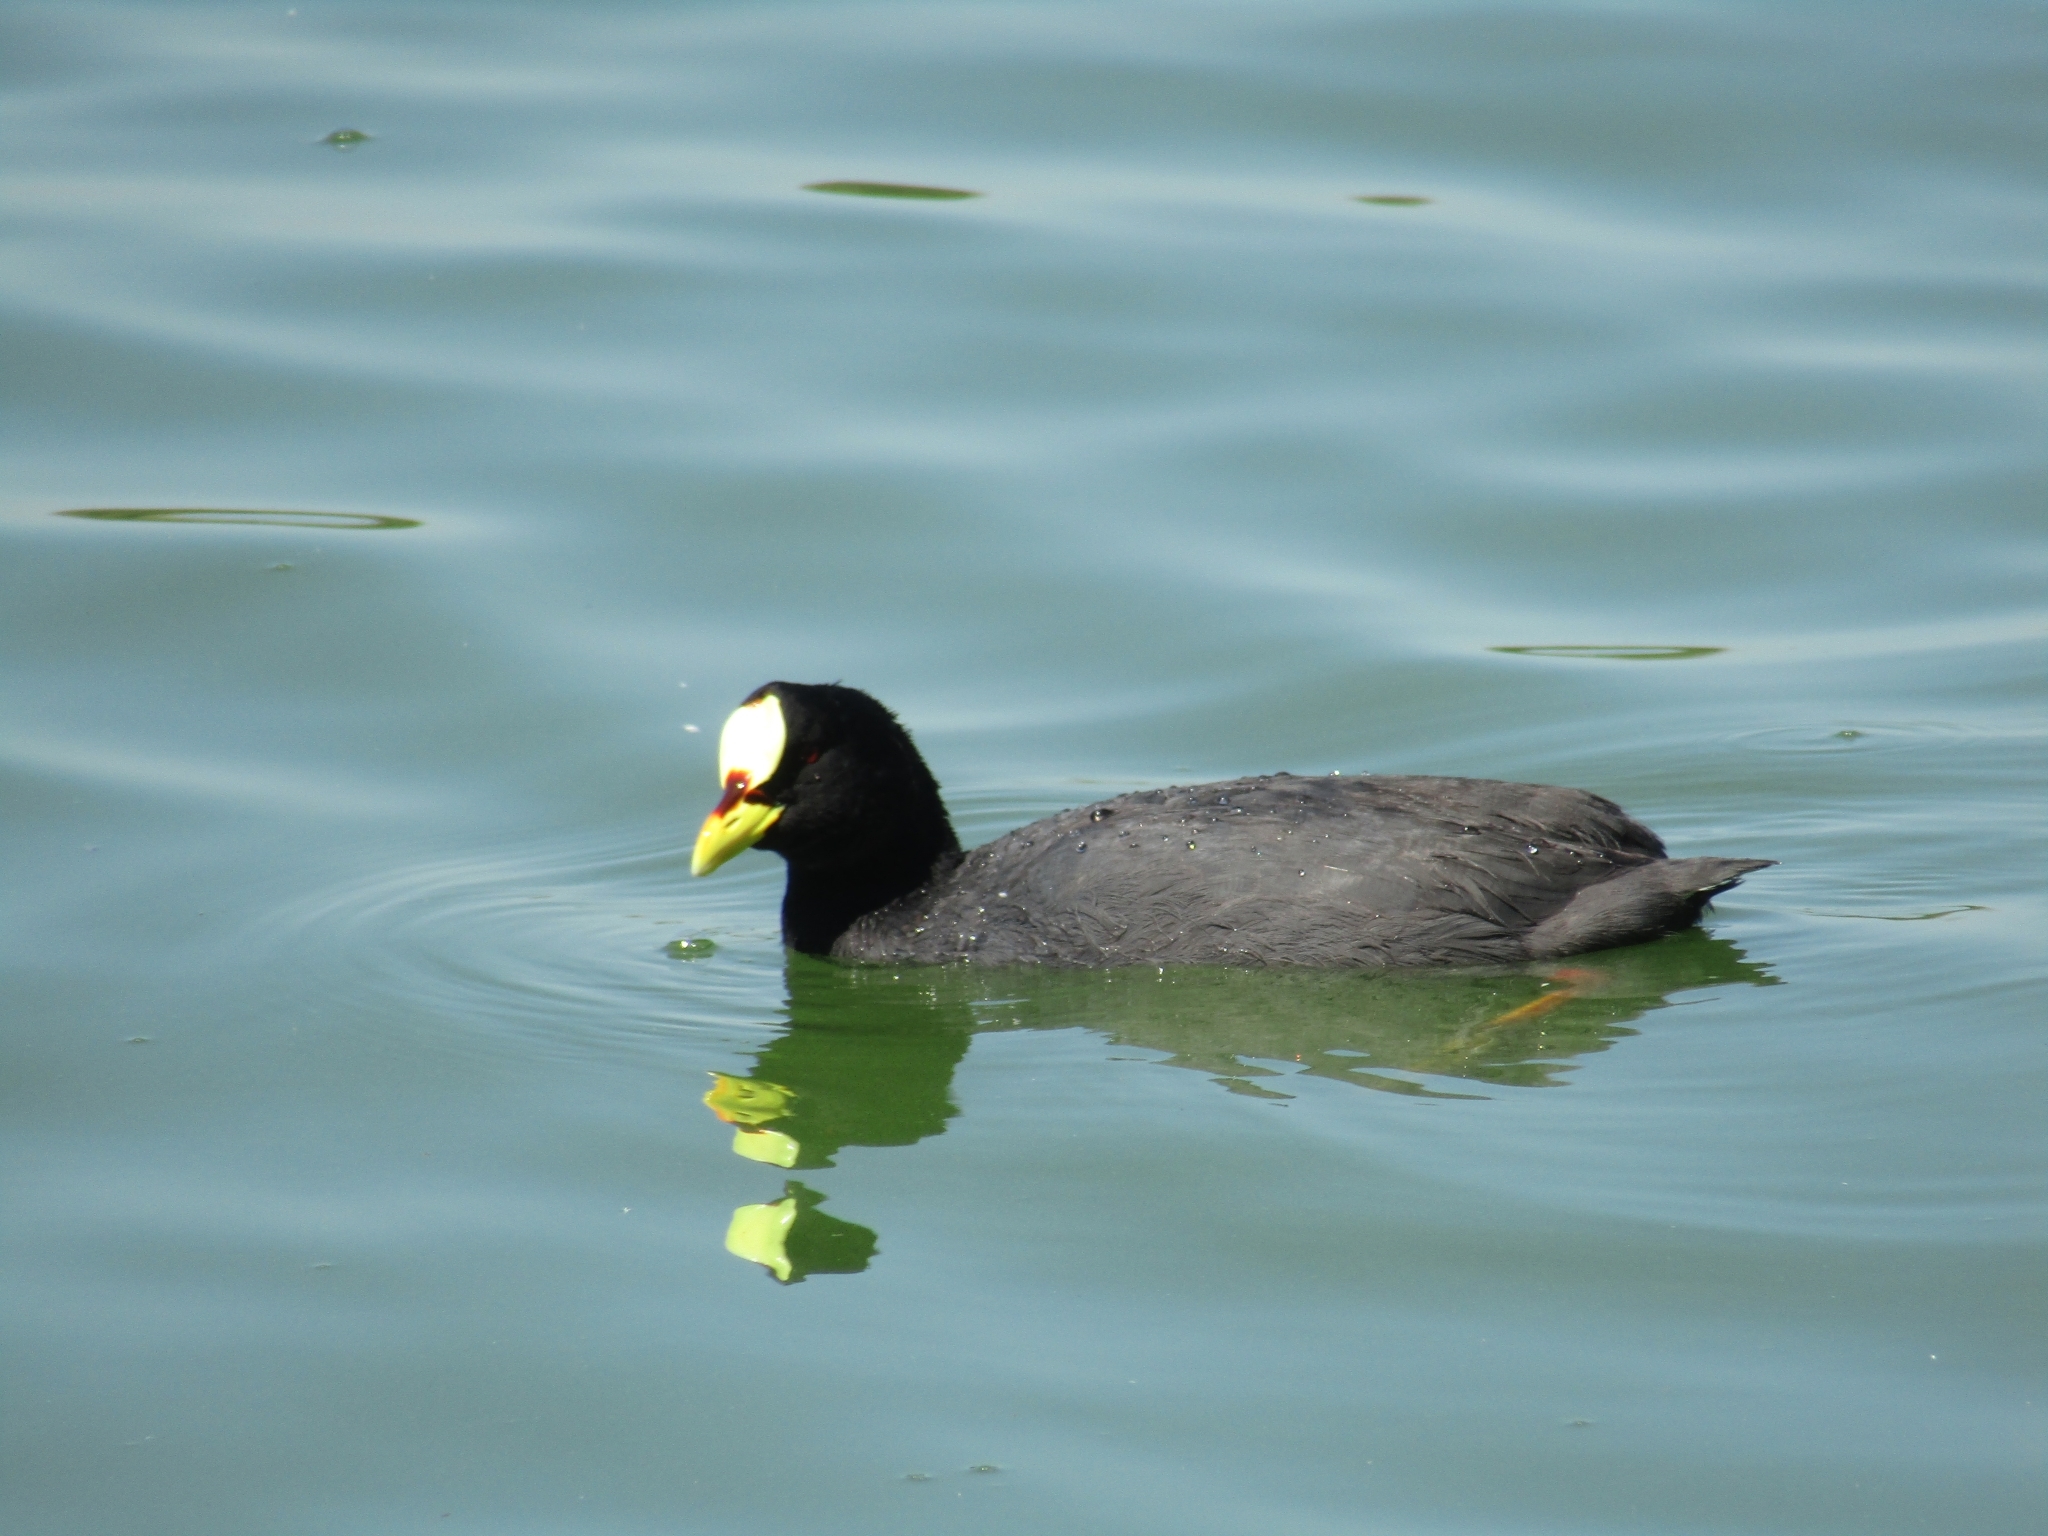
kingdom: Animalia
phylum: Chordata
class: Aves
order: Gruiformes
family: Rallidae
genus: Fulica
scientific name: Fulica armillata
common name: Red-gartered coot
